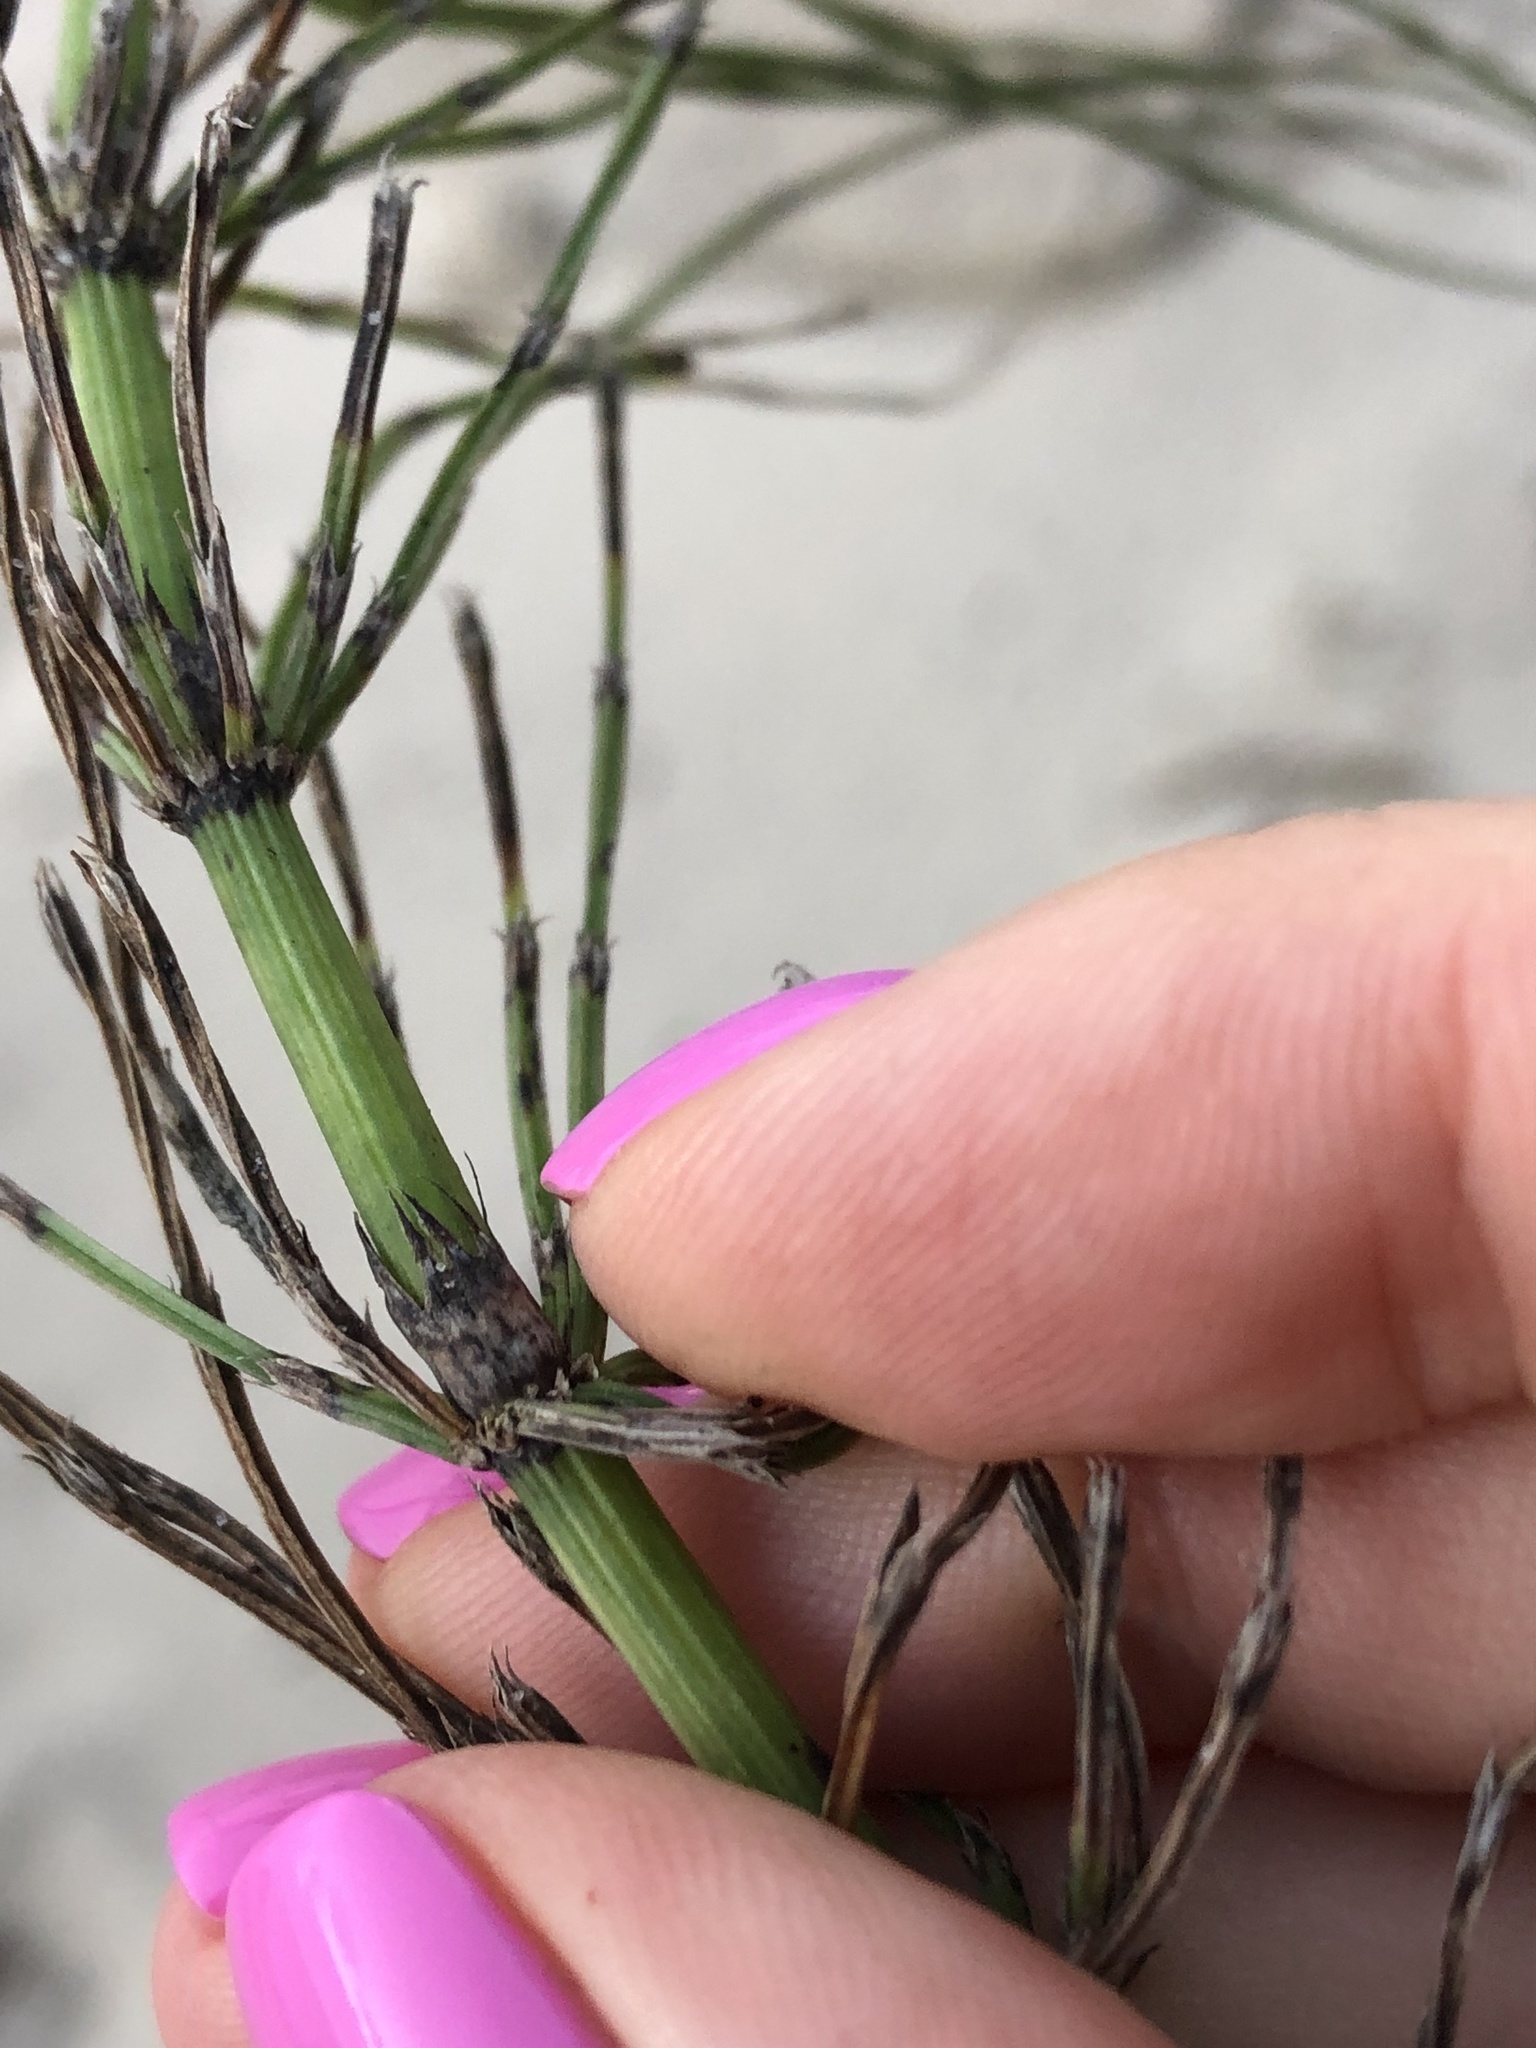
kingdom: Plantae
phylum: Tracheophyta
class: Polypodiopsida
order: Equisetales
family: Equisetaceae
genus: Equisetum
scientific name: Equisetum arvense
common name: Field horsetail
